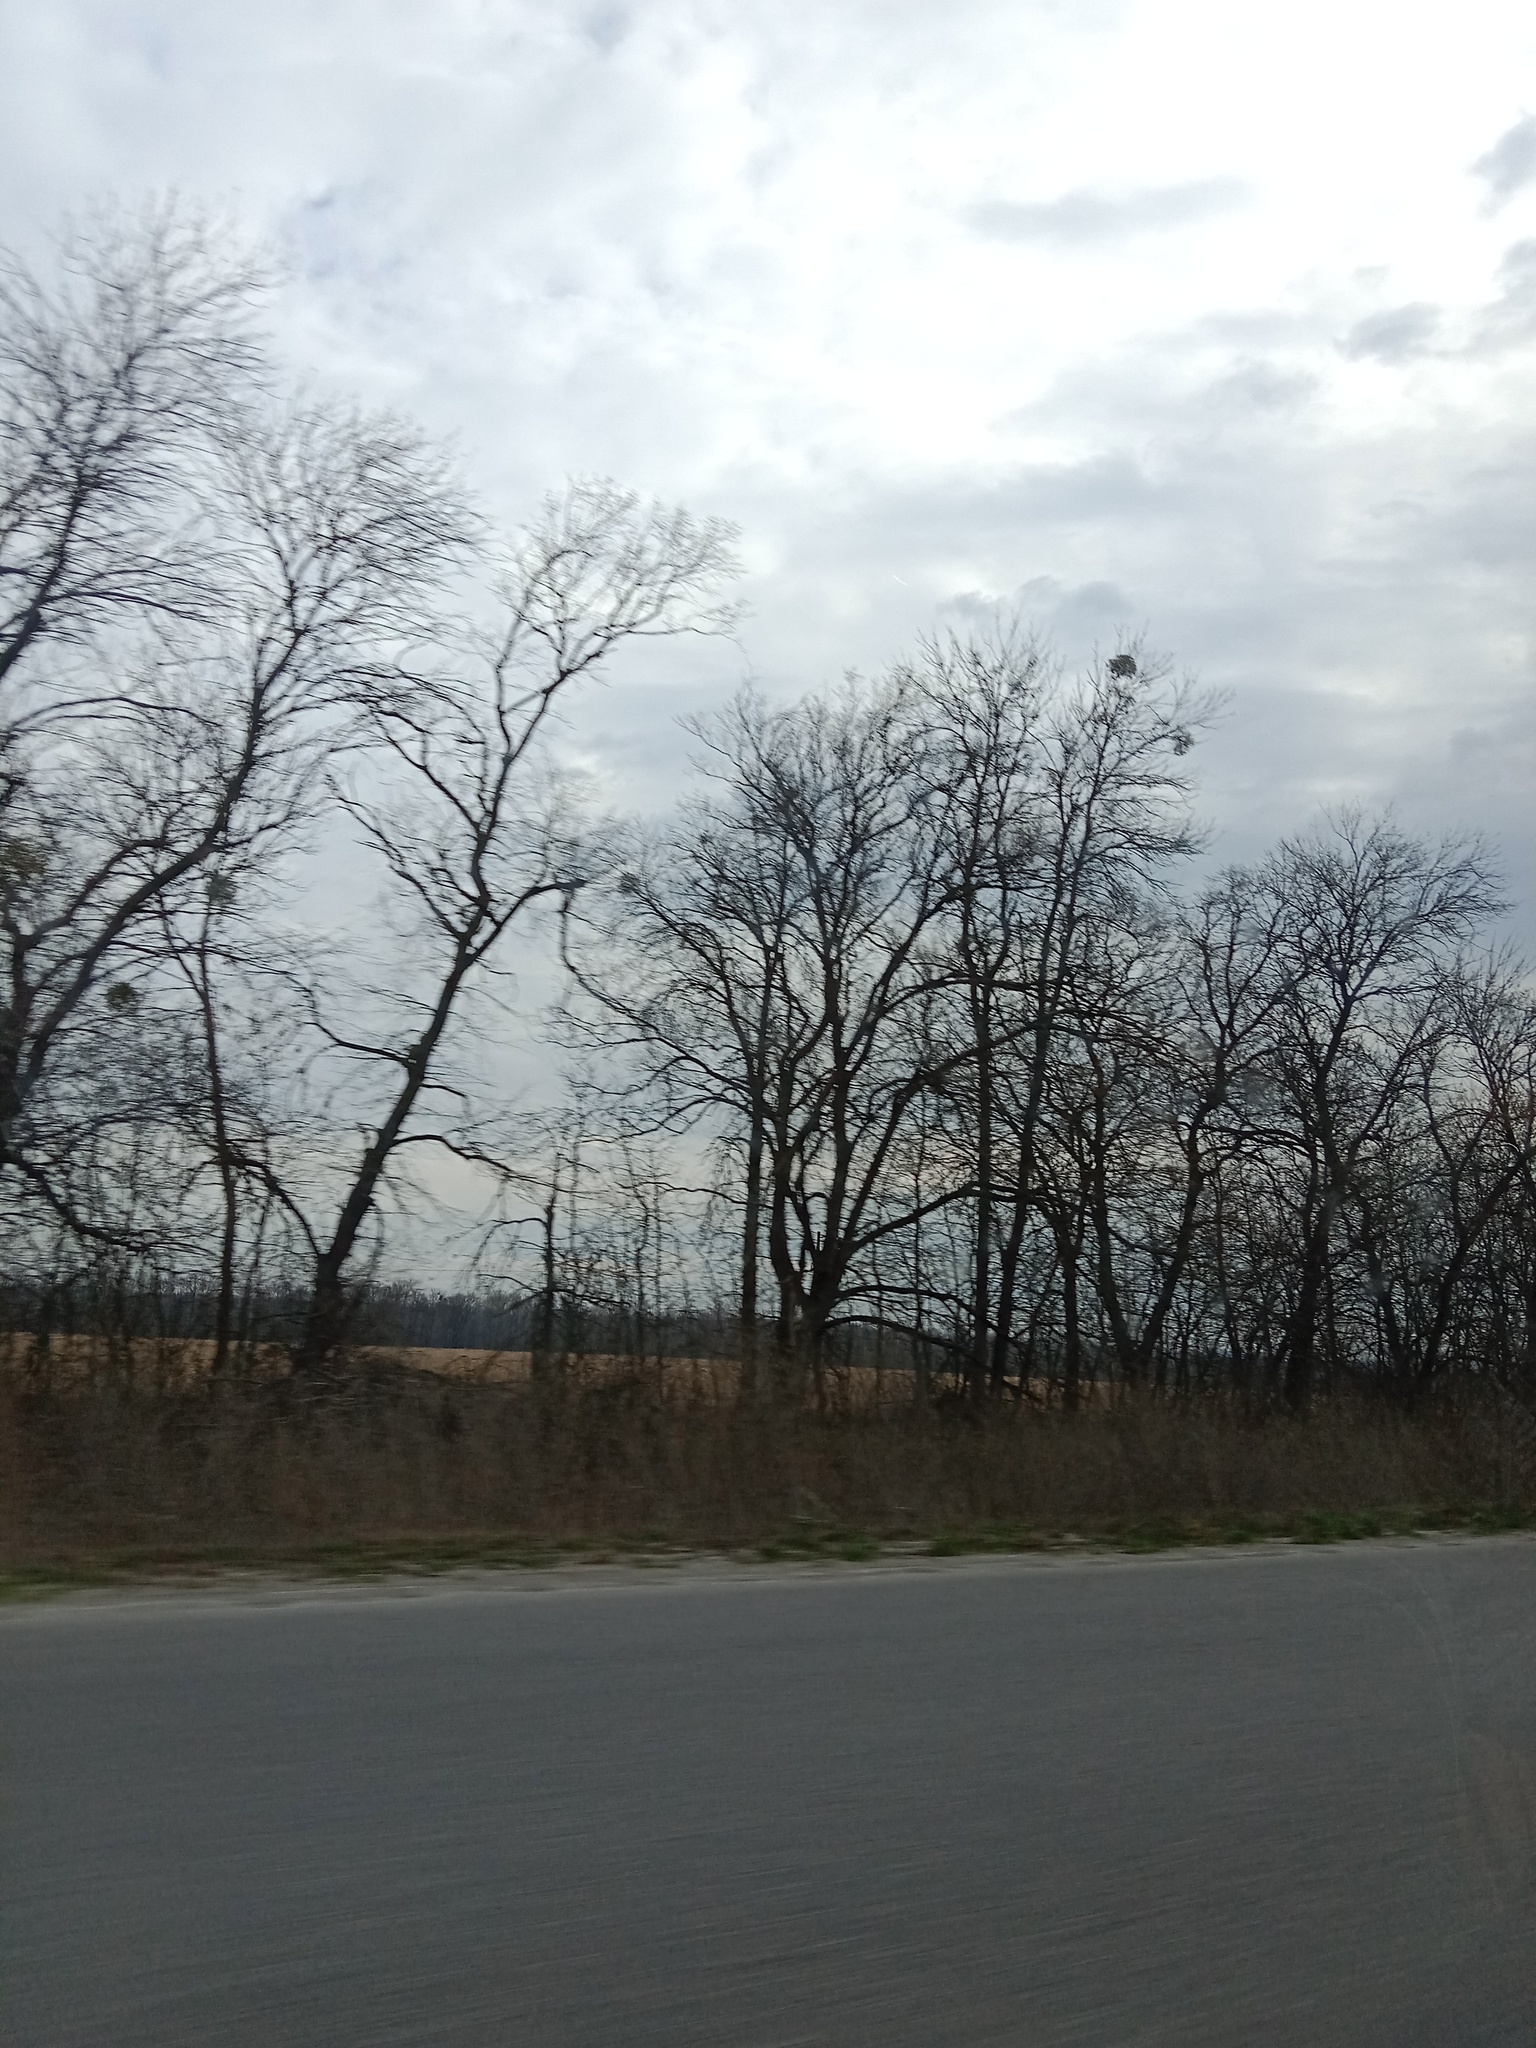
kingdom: Plantae
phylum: Tracheophyta
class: Magnoliopsida
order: Santalales
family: Viscaceae
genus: Viscum
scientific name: Viscum album
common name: Mistletoe
